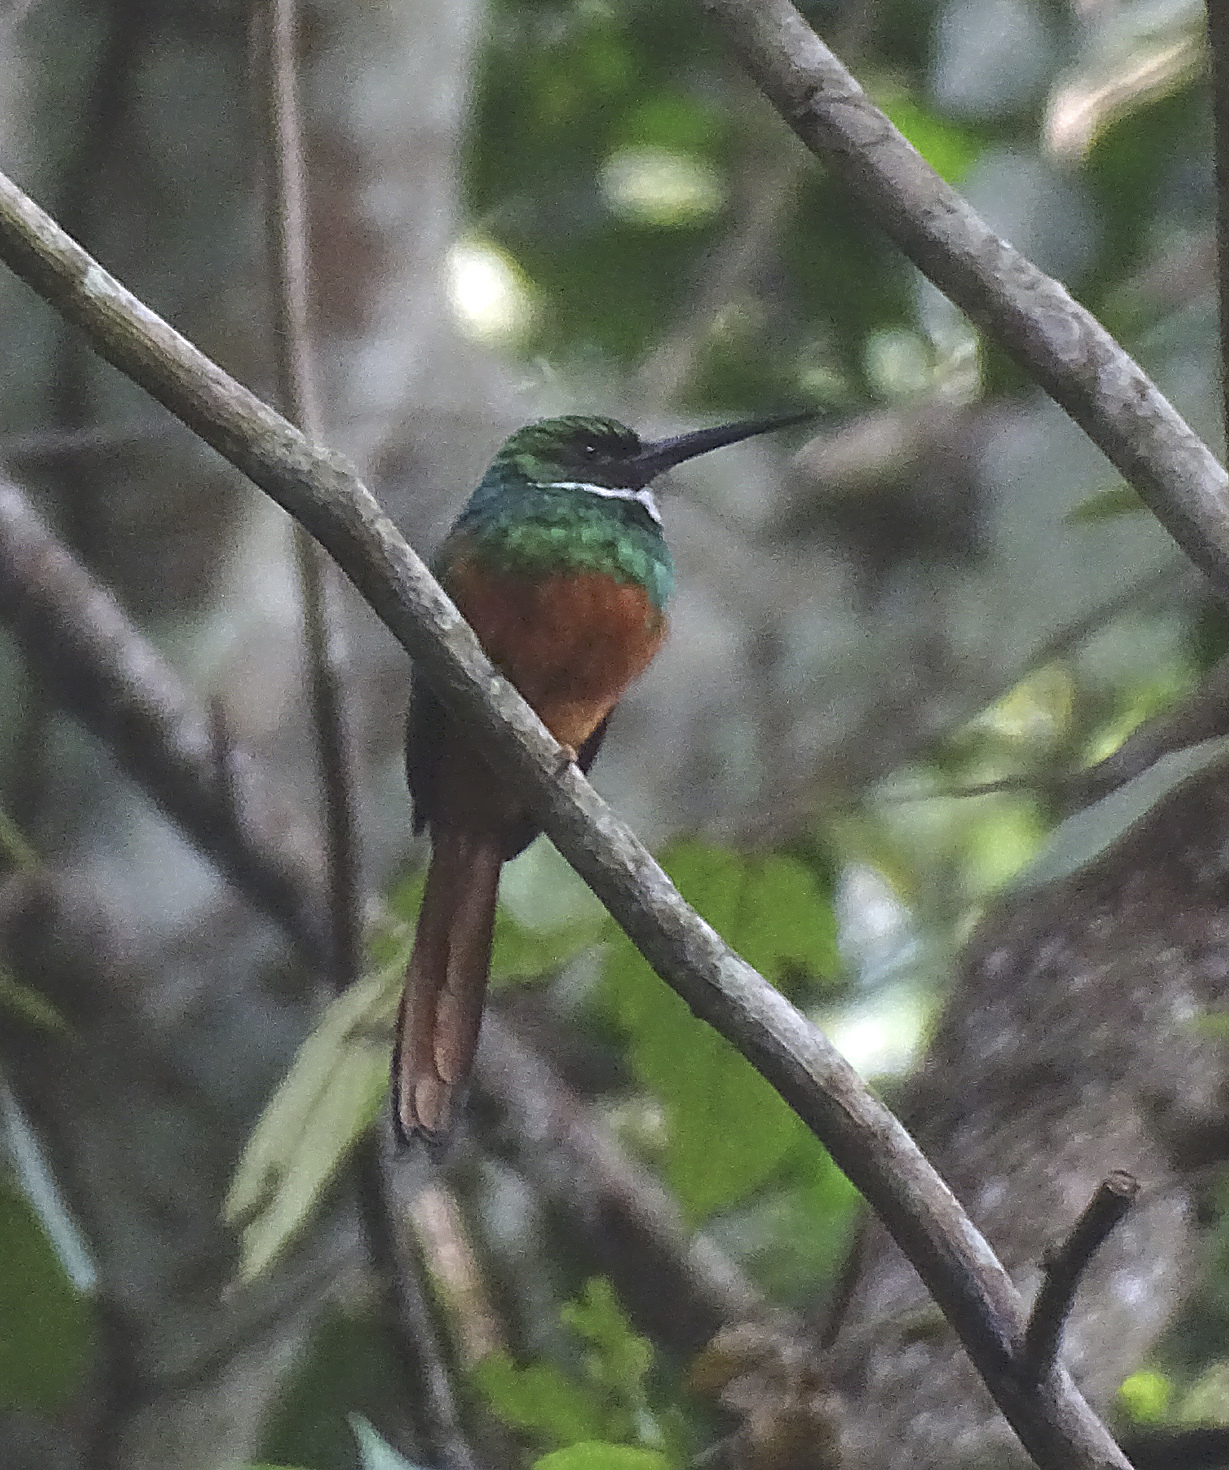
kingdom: Animalia
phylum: Chordata
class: Aves
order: Piciformes
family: Galbulidae
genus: Galbula
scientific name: Galbula ruficauda
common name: Rufous-tailed jacamar
